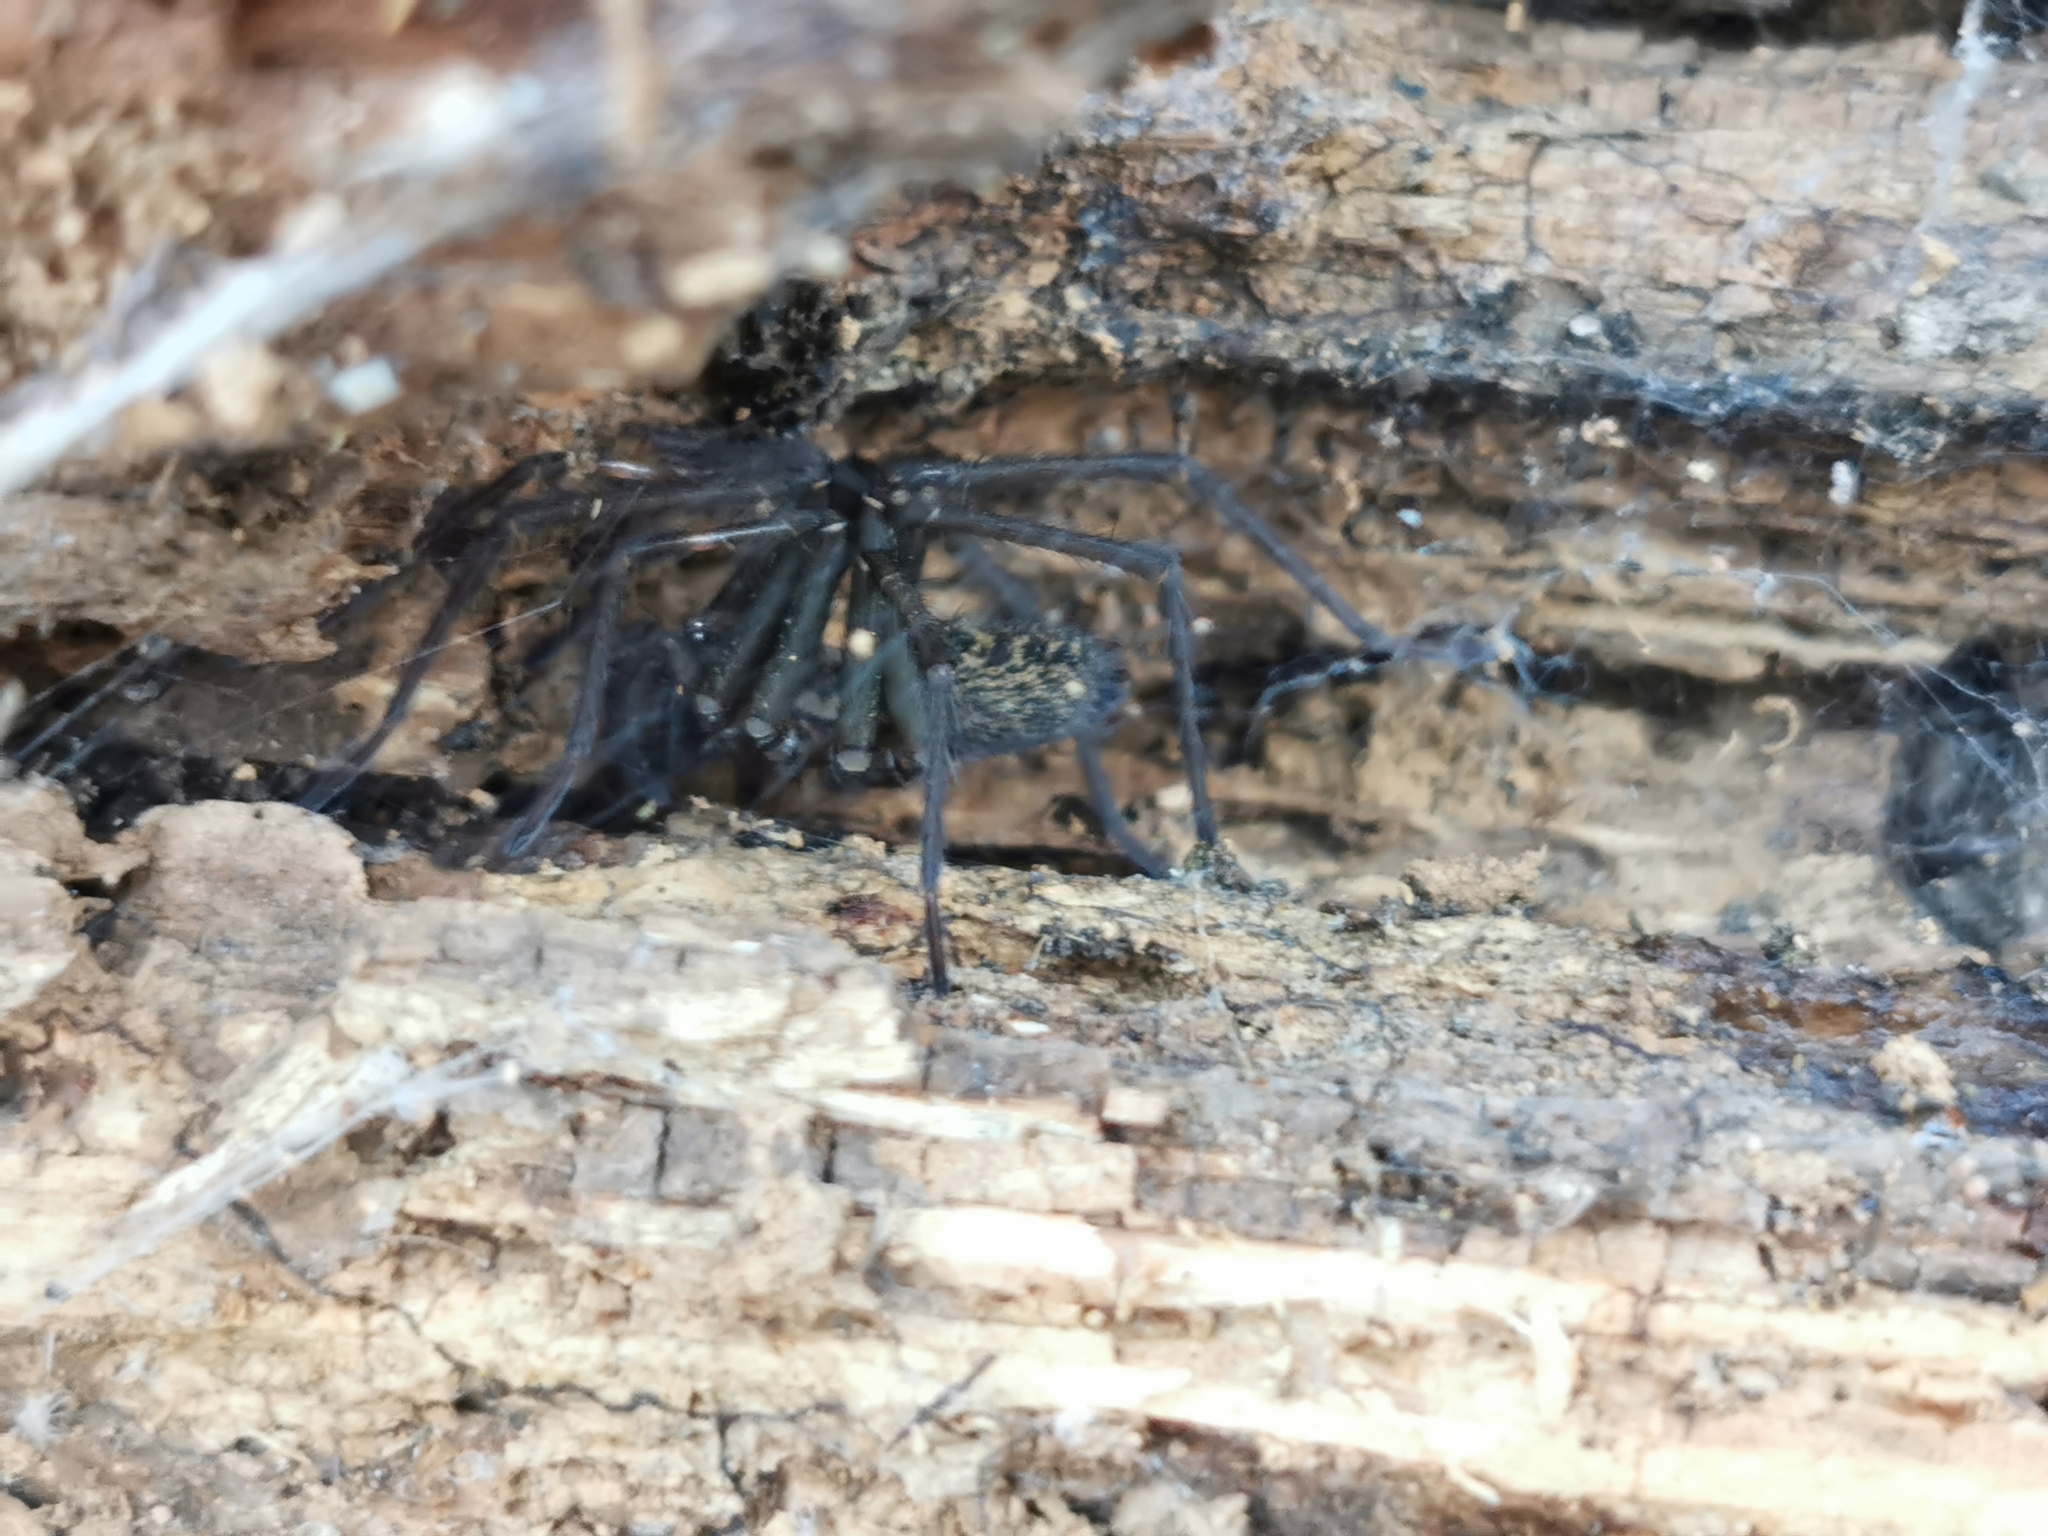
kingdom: Animalia
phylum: Arthropoda
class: Arachnida
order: Araneae
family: Agelenidae
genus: Eratigena
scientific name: Eratigena duellica
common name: Giant house spider
